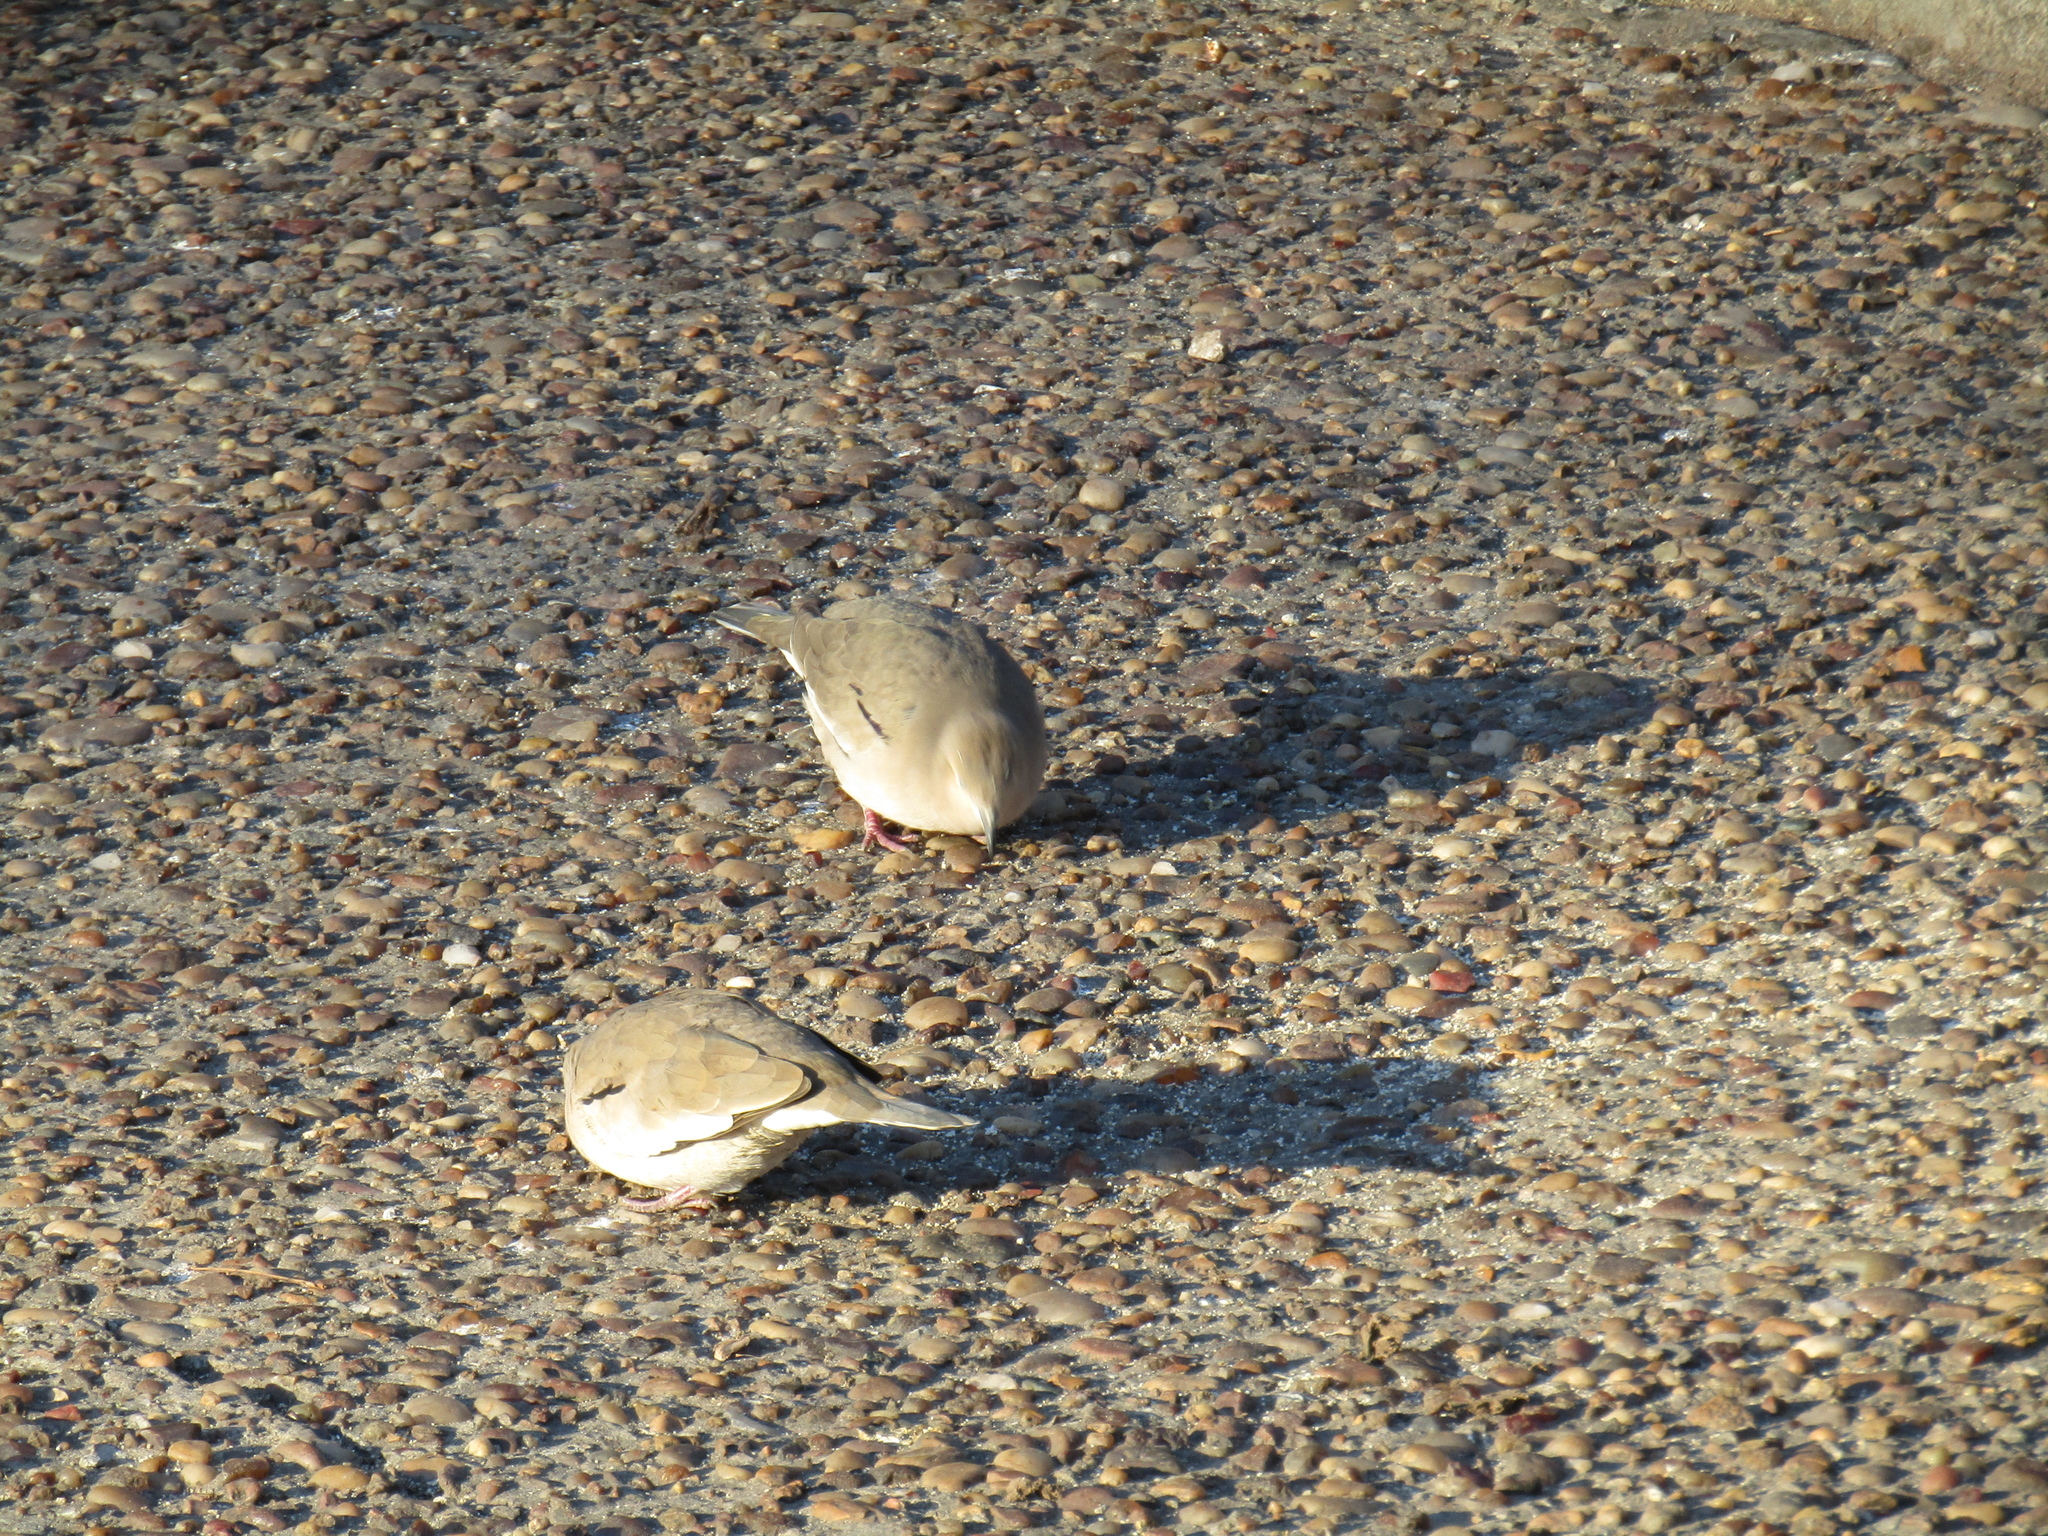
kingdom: Animalia
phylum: Chordata
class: Aves
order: Columbiformes
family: Columbidae
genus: Columbina
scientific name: Columbina picui
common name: Picui ground dove
